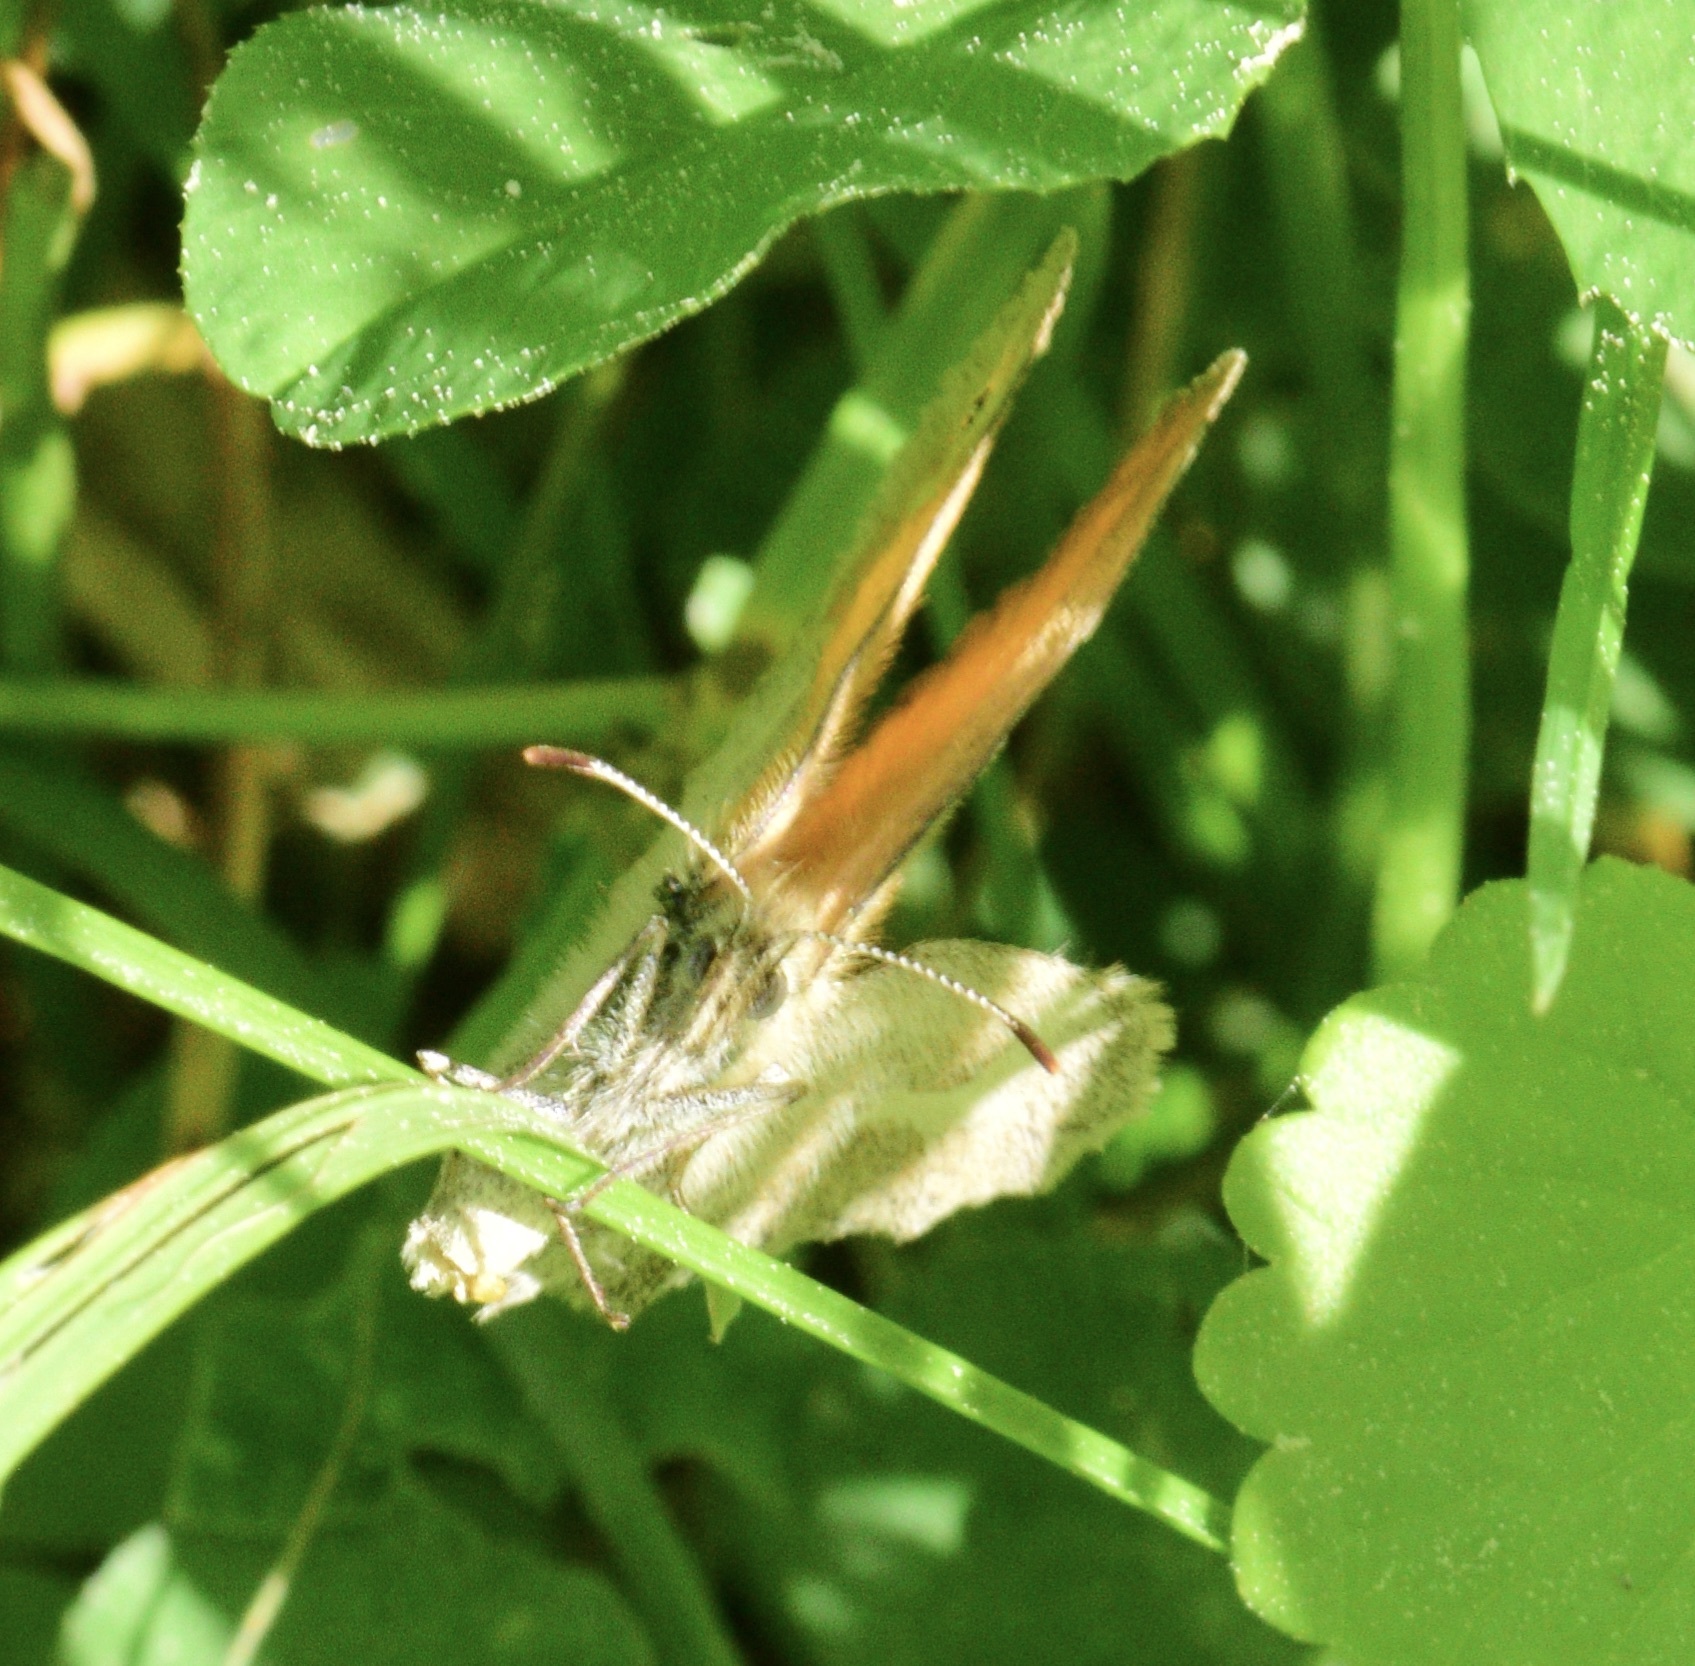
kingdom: Animalia
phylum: Arthropoda
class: Insecta
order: Lepidoptera
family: Nymphalidae
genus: Coenonympha
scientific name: Coenonympha california
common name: Common ringlet
